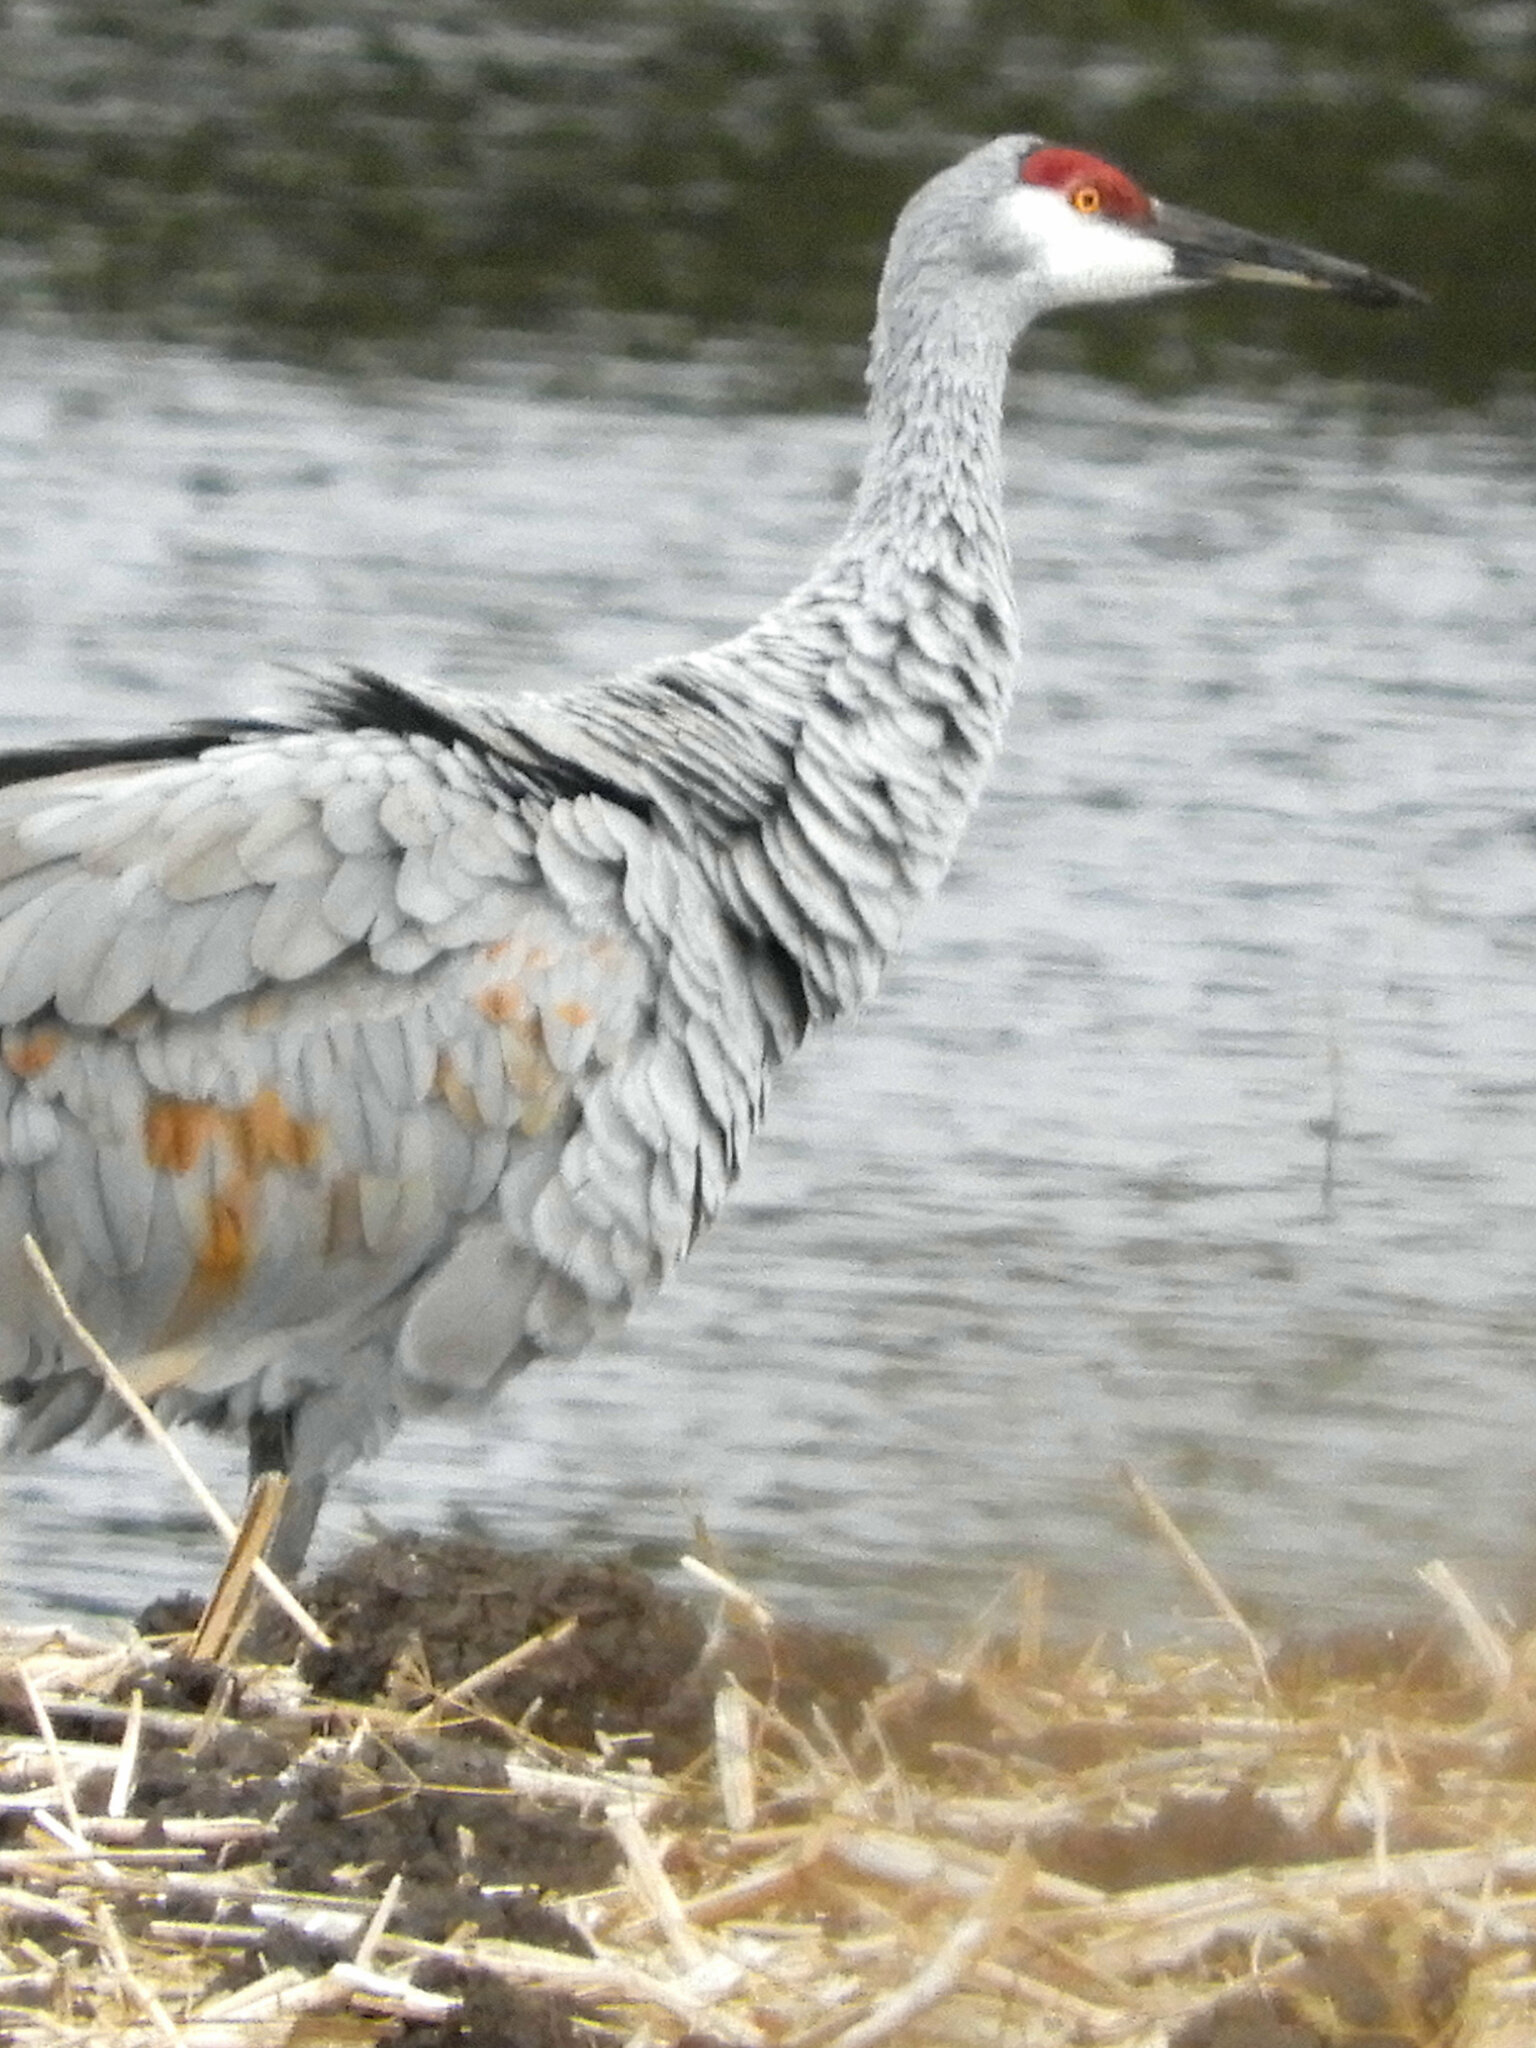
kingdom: Animalia
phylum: Chordata
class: Aves
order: Gruiformes
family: Gruidae
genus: Grus
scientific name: Grus canadensis
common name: Sandhill crane
